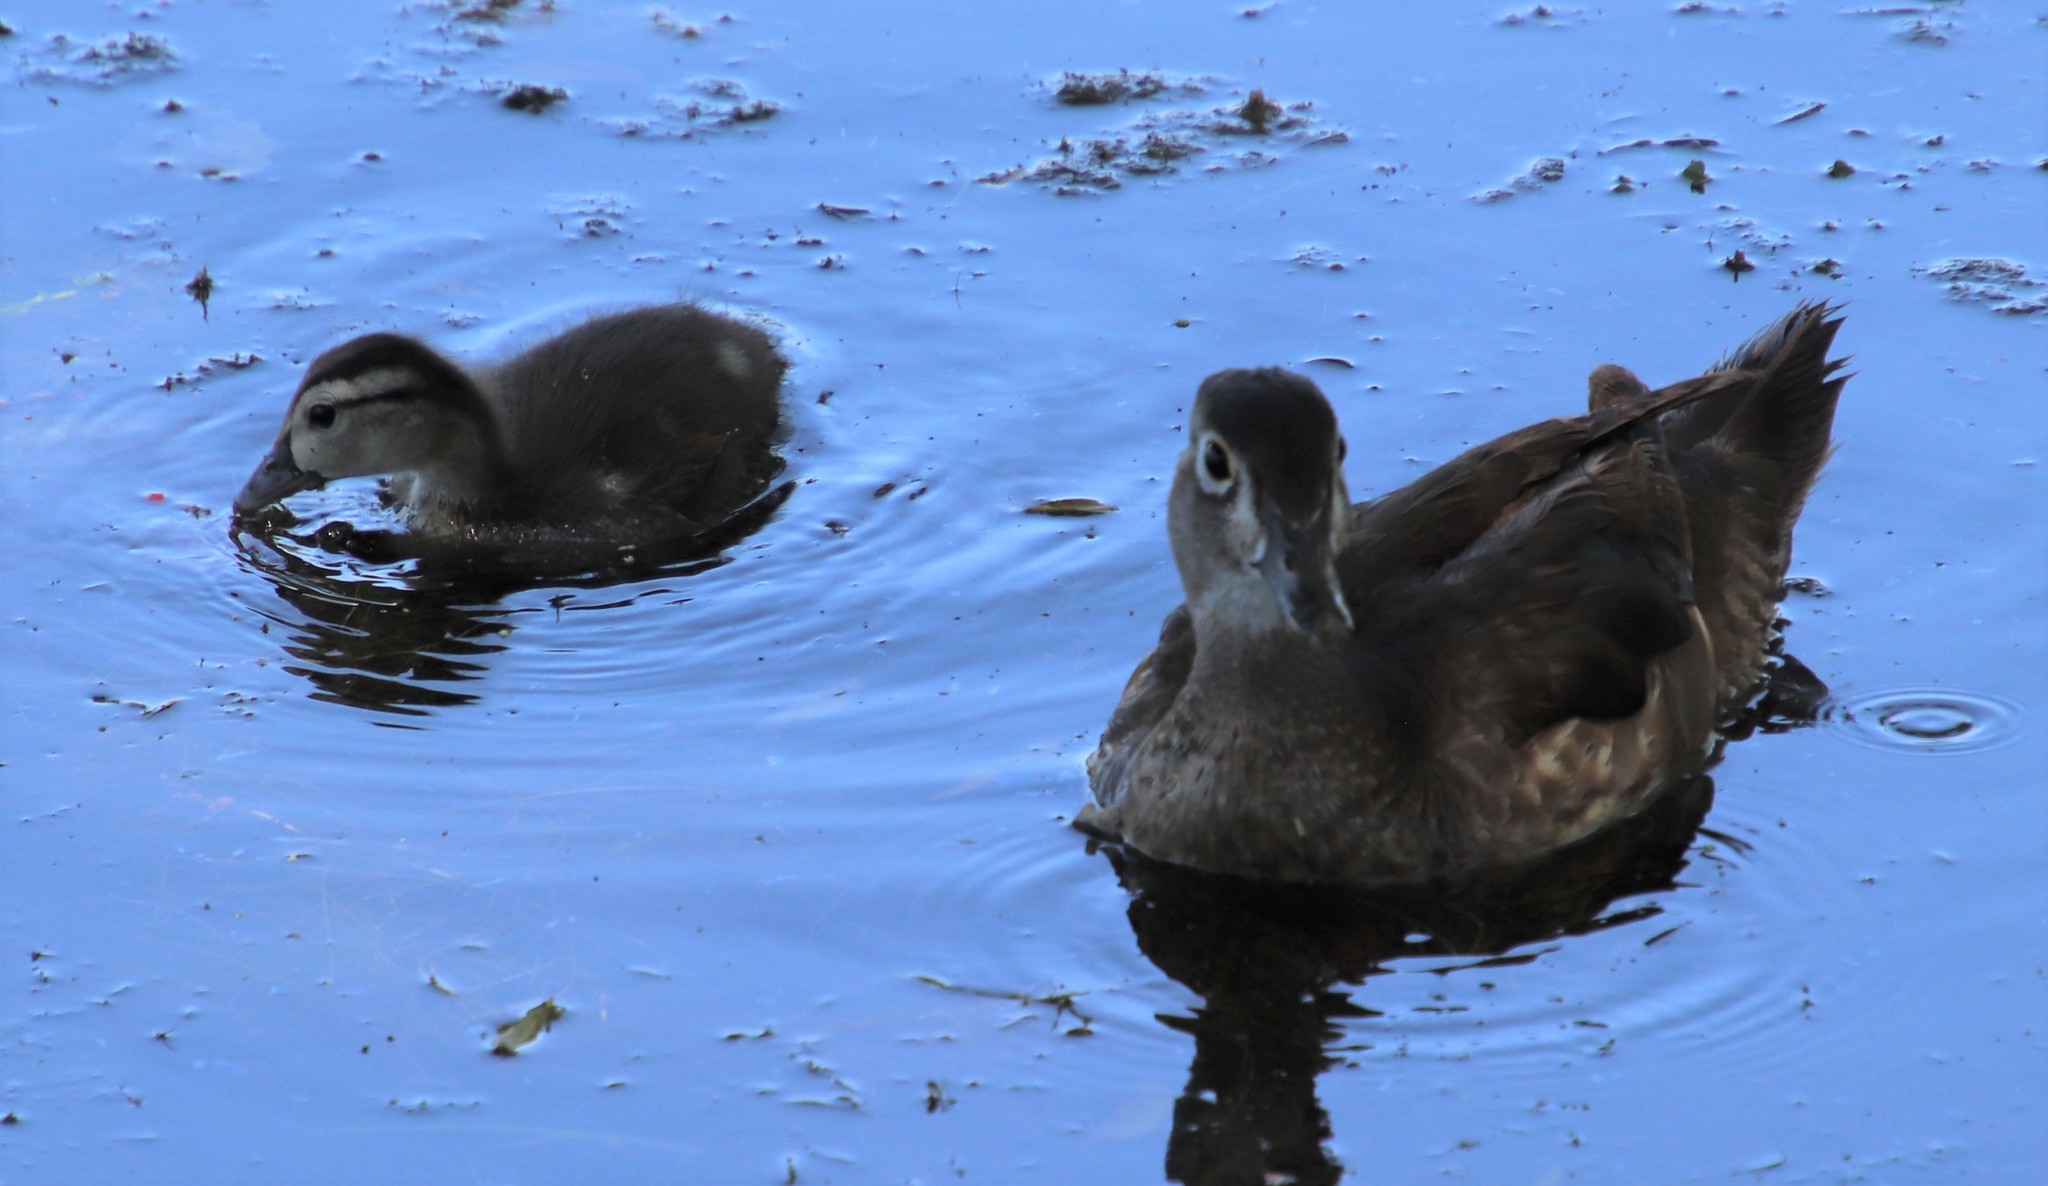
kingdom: Animalia
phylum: Chordata
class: Aves
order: Anseriformes
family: Anatidae
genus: Aix
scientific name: Aix sponsa
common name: Wood duck
